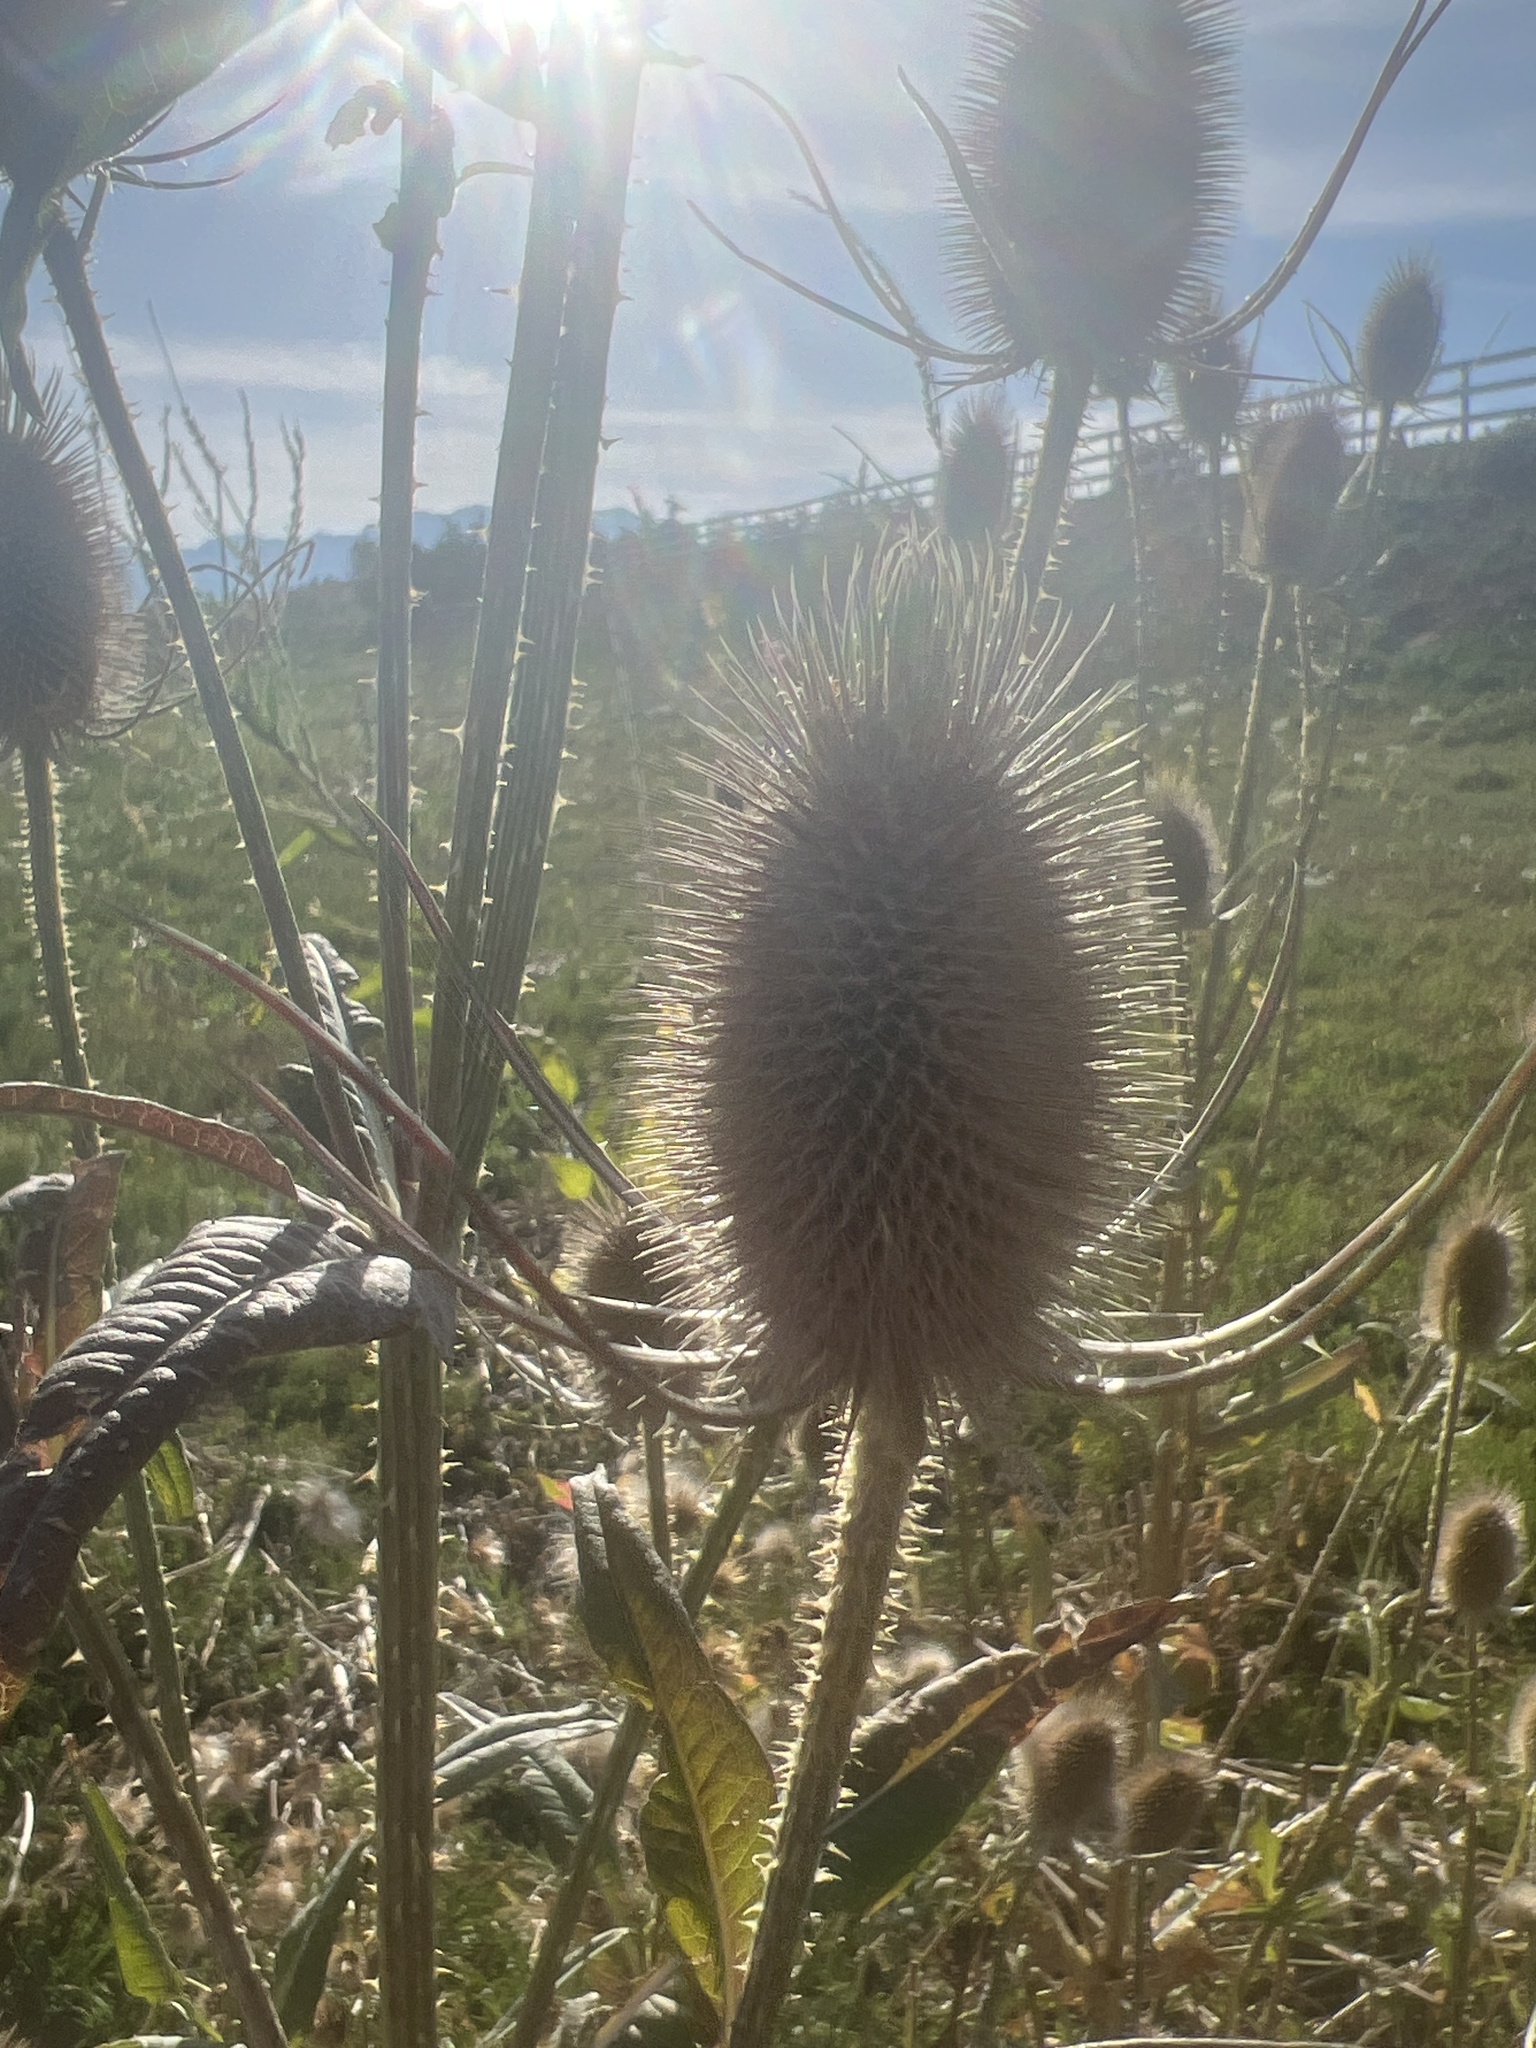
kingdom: Plantae
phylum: Tracheophyta
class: Magnoliopsida
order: Dipsacales
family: Caprifoliaceae
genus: Dipsacus
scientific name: Dipsacus fullonum
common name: Teasel
